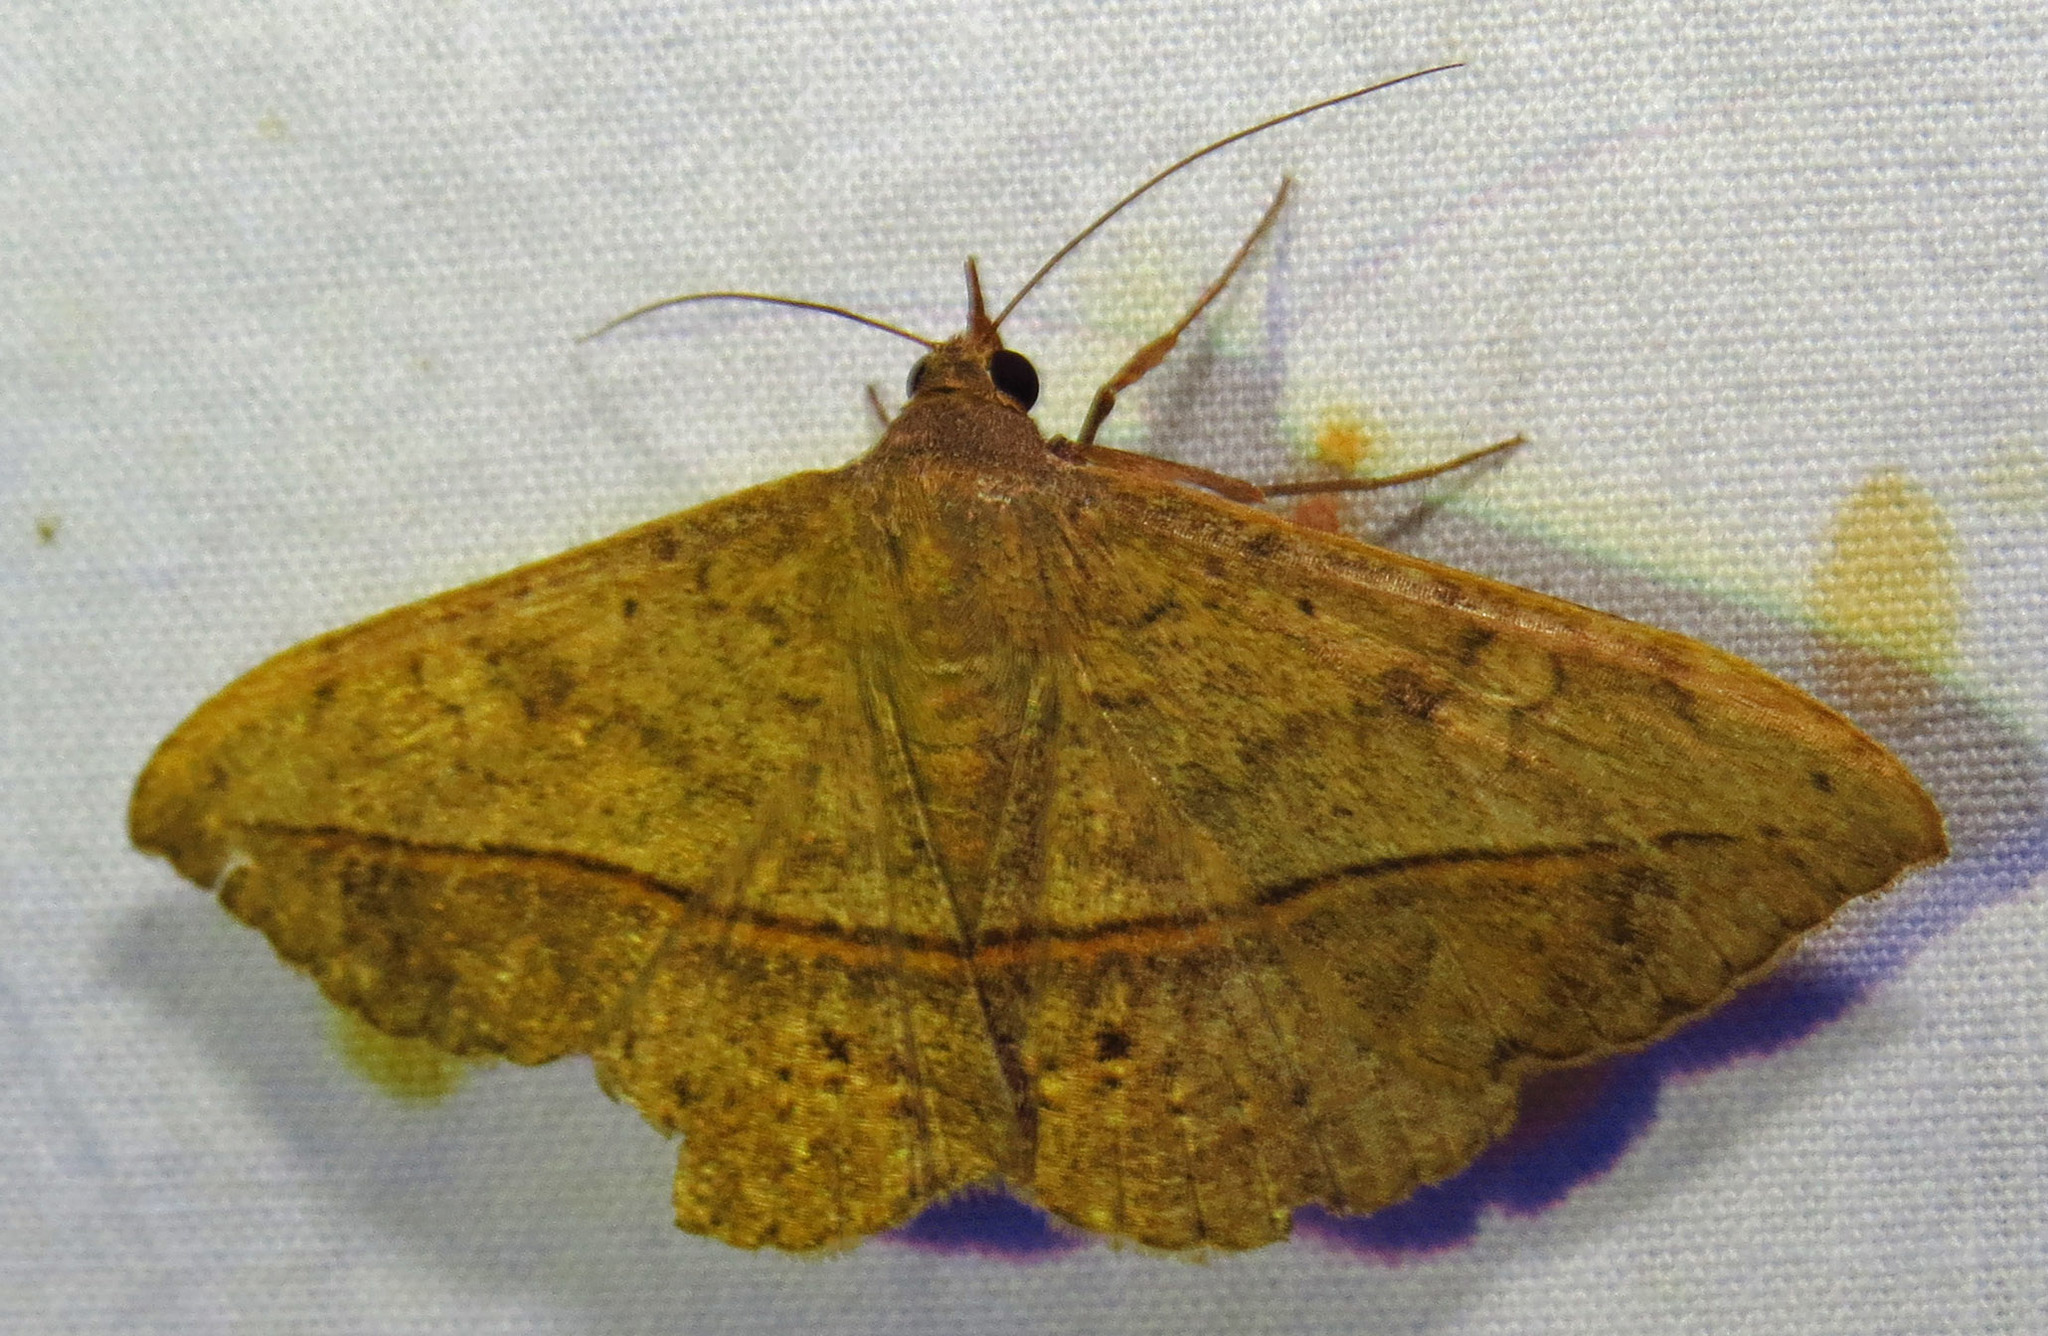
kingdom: Animalia
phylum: Arthropoda
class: Insecta
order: Lepidoptera
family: Erebidae
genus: Anticarsia
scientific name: Anticarsia gemmatalis
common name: Cutworm moth
